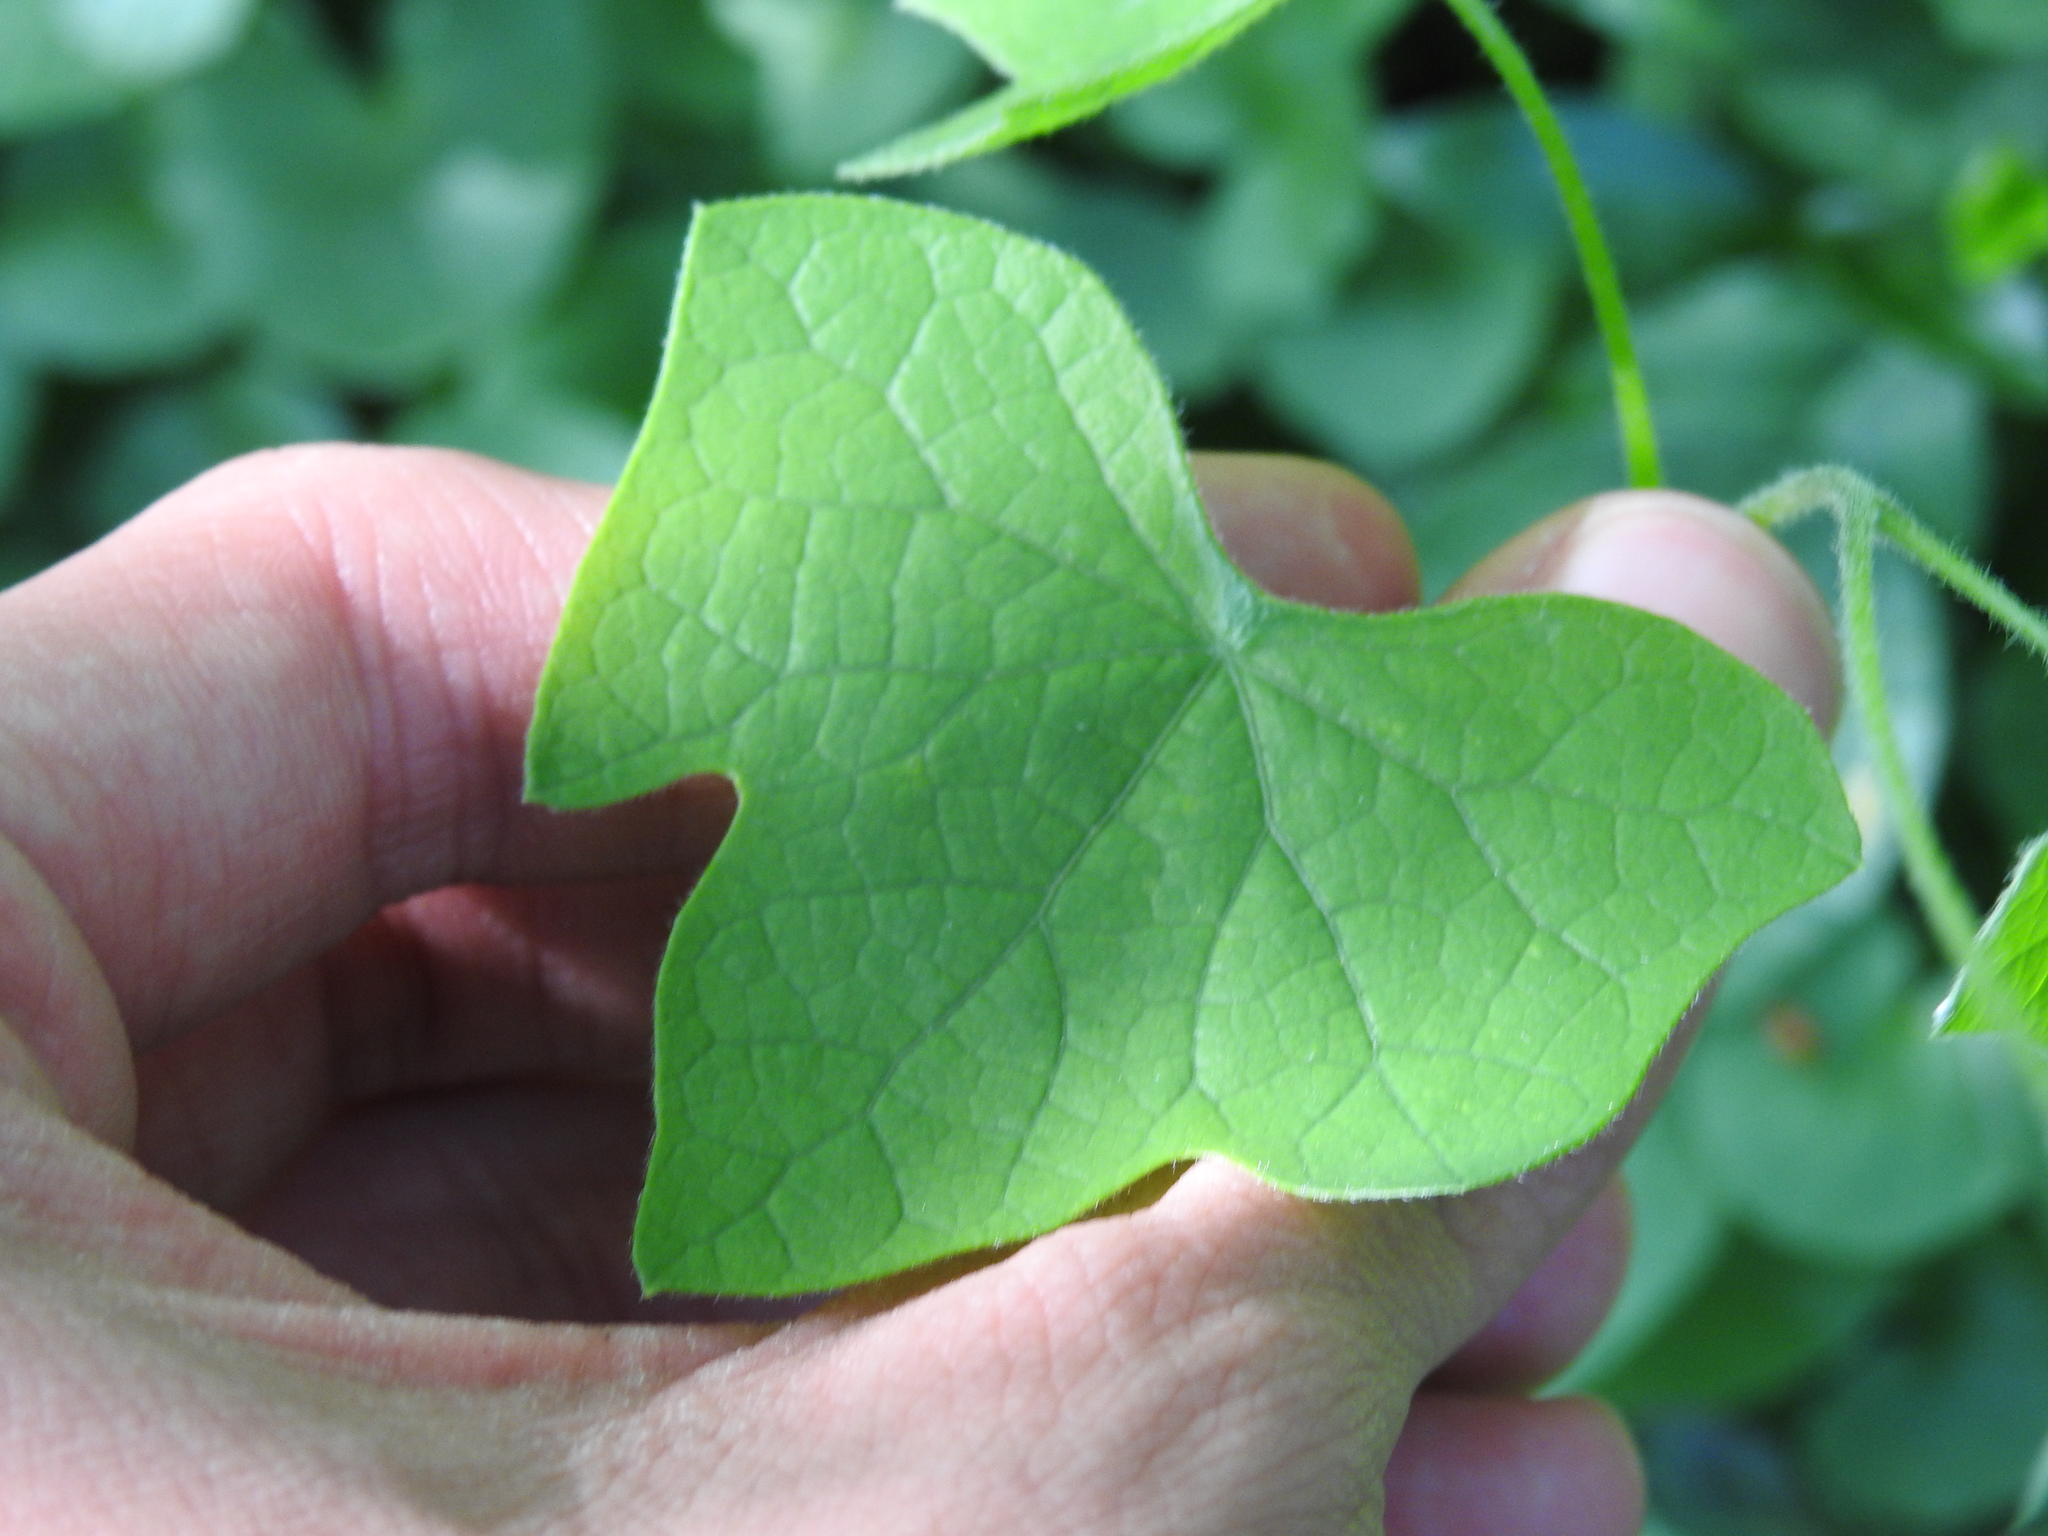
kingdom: Plantae
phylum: Tracheophyta
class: Magnoliopsida
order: Ranunculales
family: Menispermaceae
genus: Menispermum
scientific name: Menispermum canadense
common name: Moonseed
